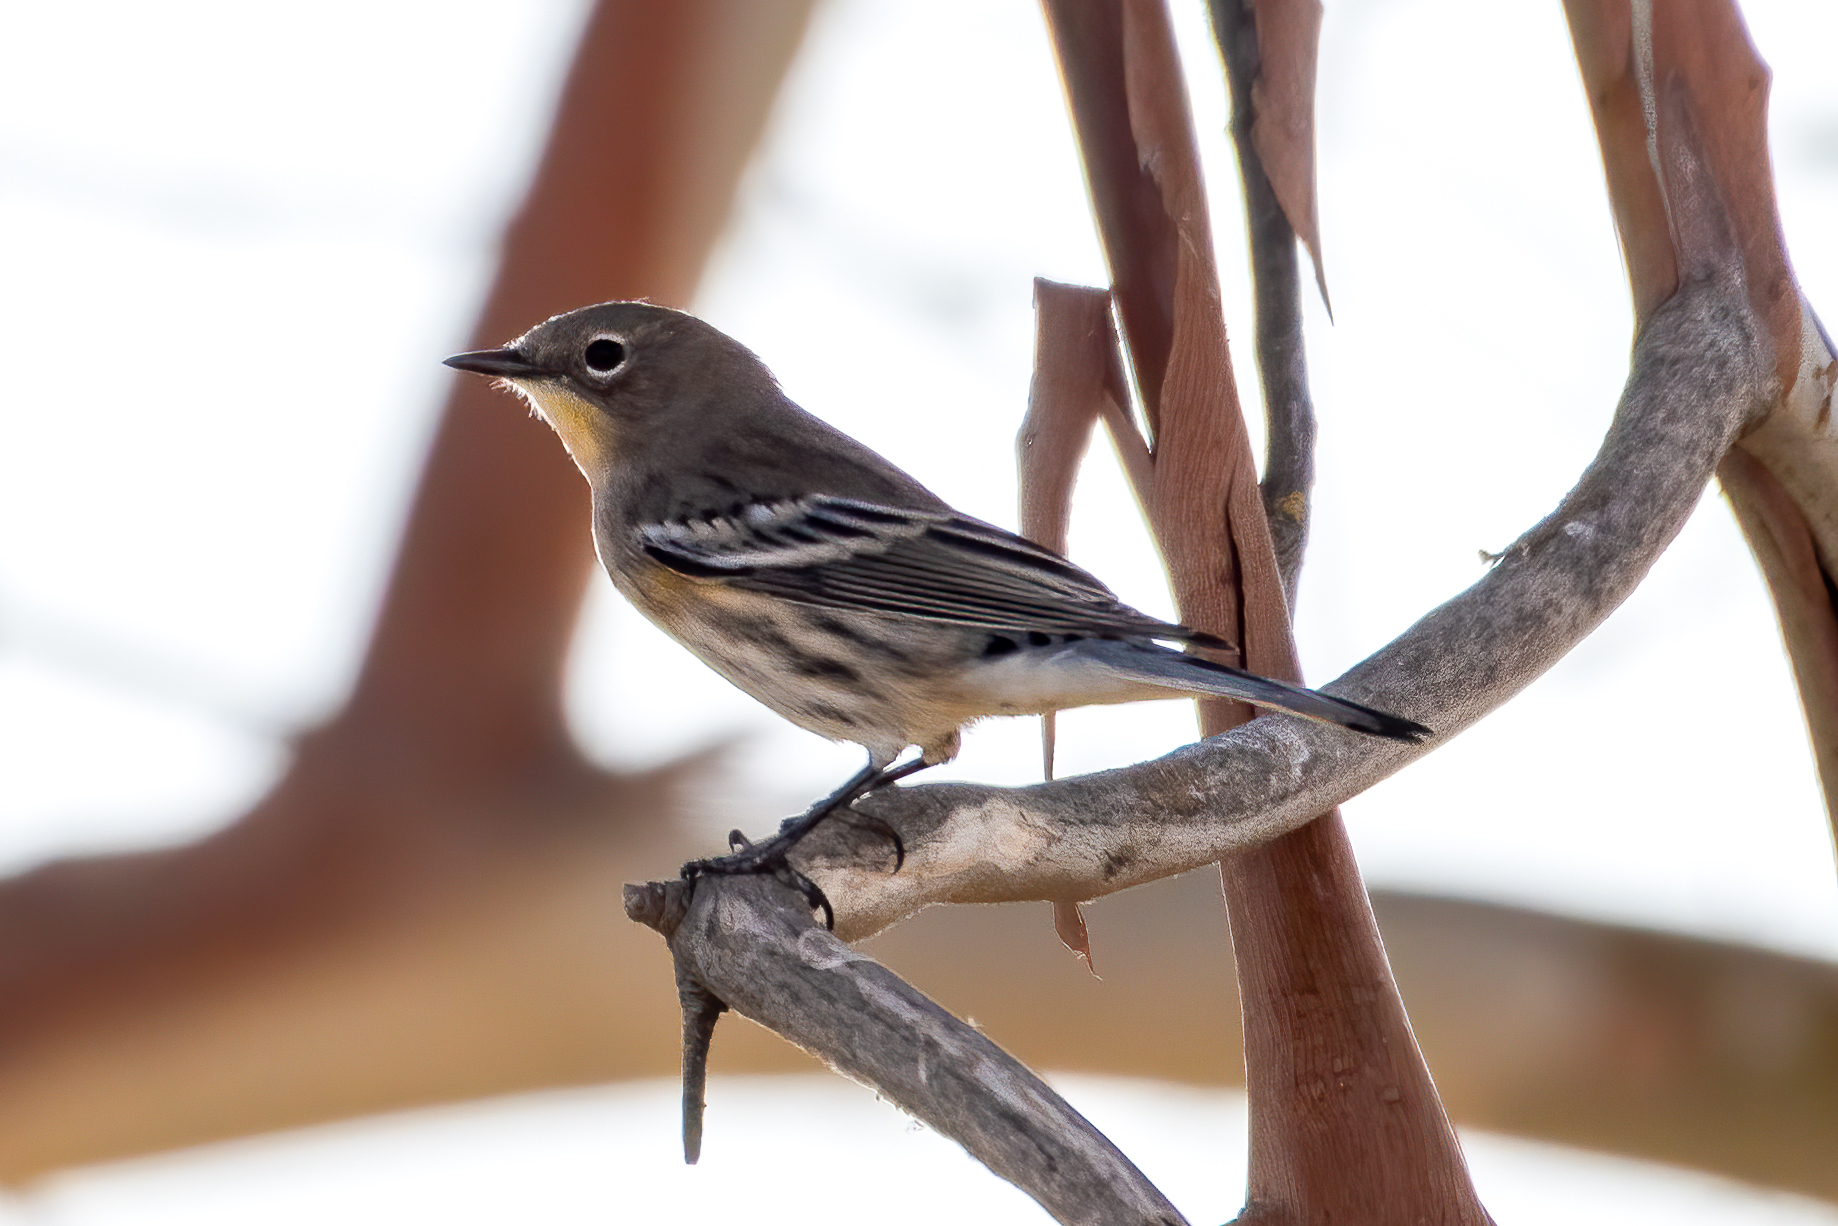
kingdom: Animalia
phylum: Chordata
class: Aves
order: Passeriformes
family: Parulidae
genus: Setophaga
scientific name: Setophaga coronata
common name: Myrtle warbler
